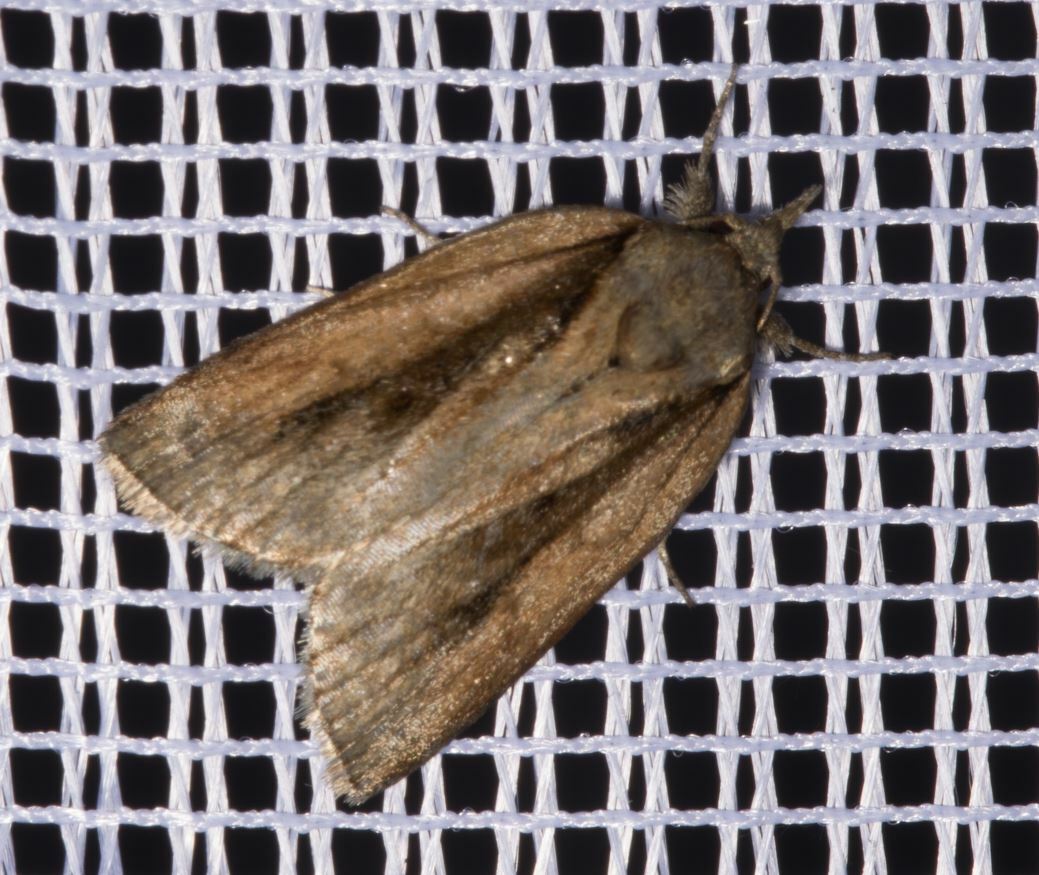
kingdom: Animalia
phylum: Arthropoda
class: Insecta
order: Lepidoptera
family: Nolidae
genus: Nycteola
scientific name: Nycteola revayana
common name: Oak nycteoline
